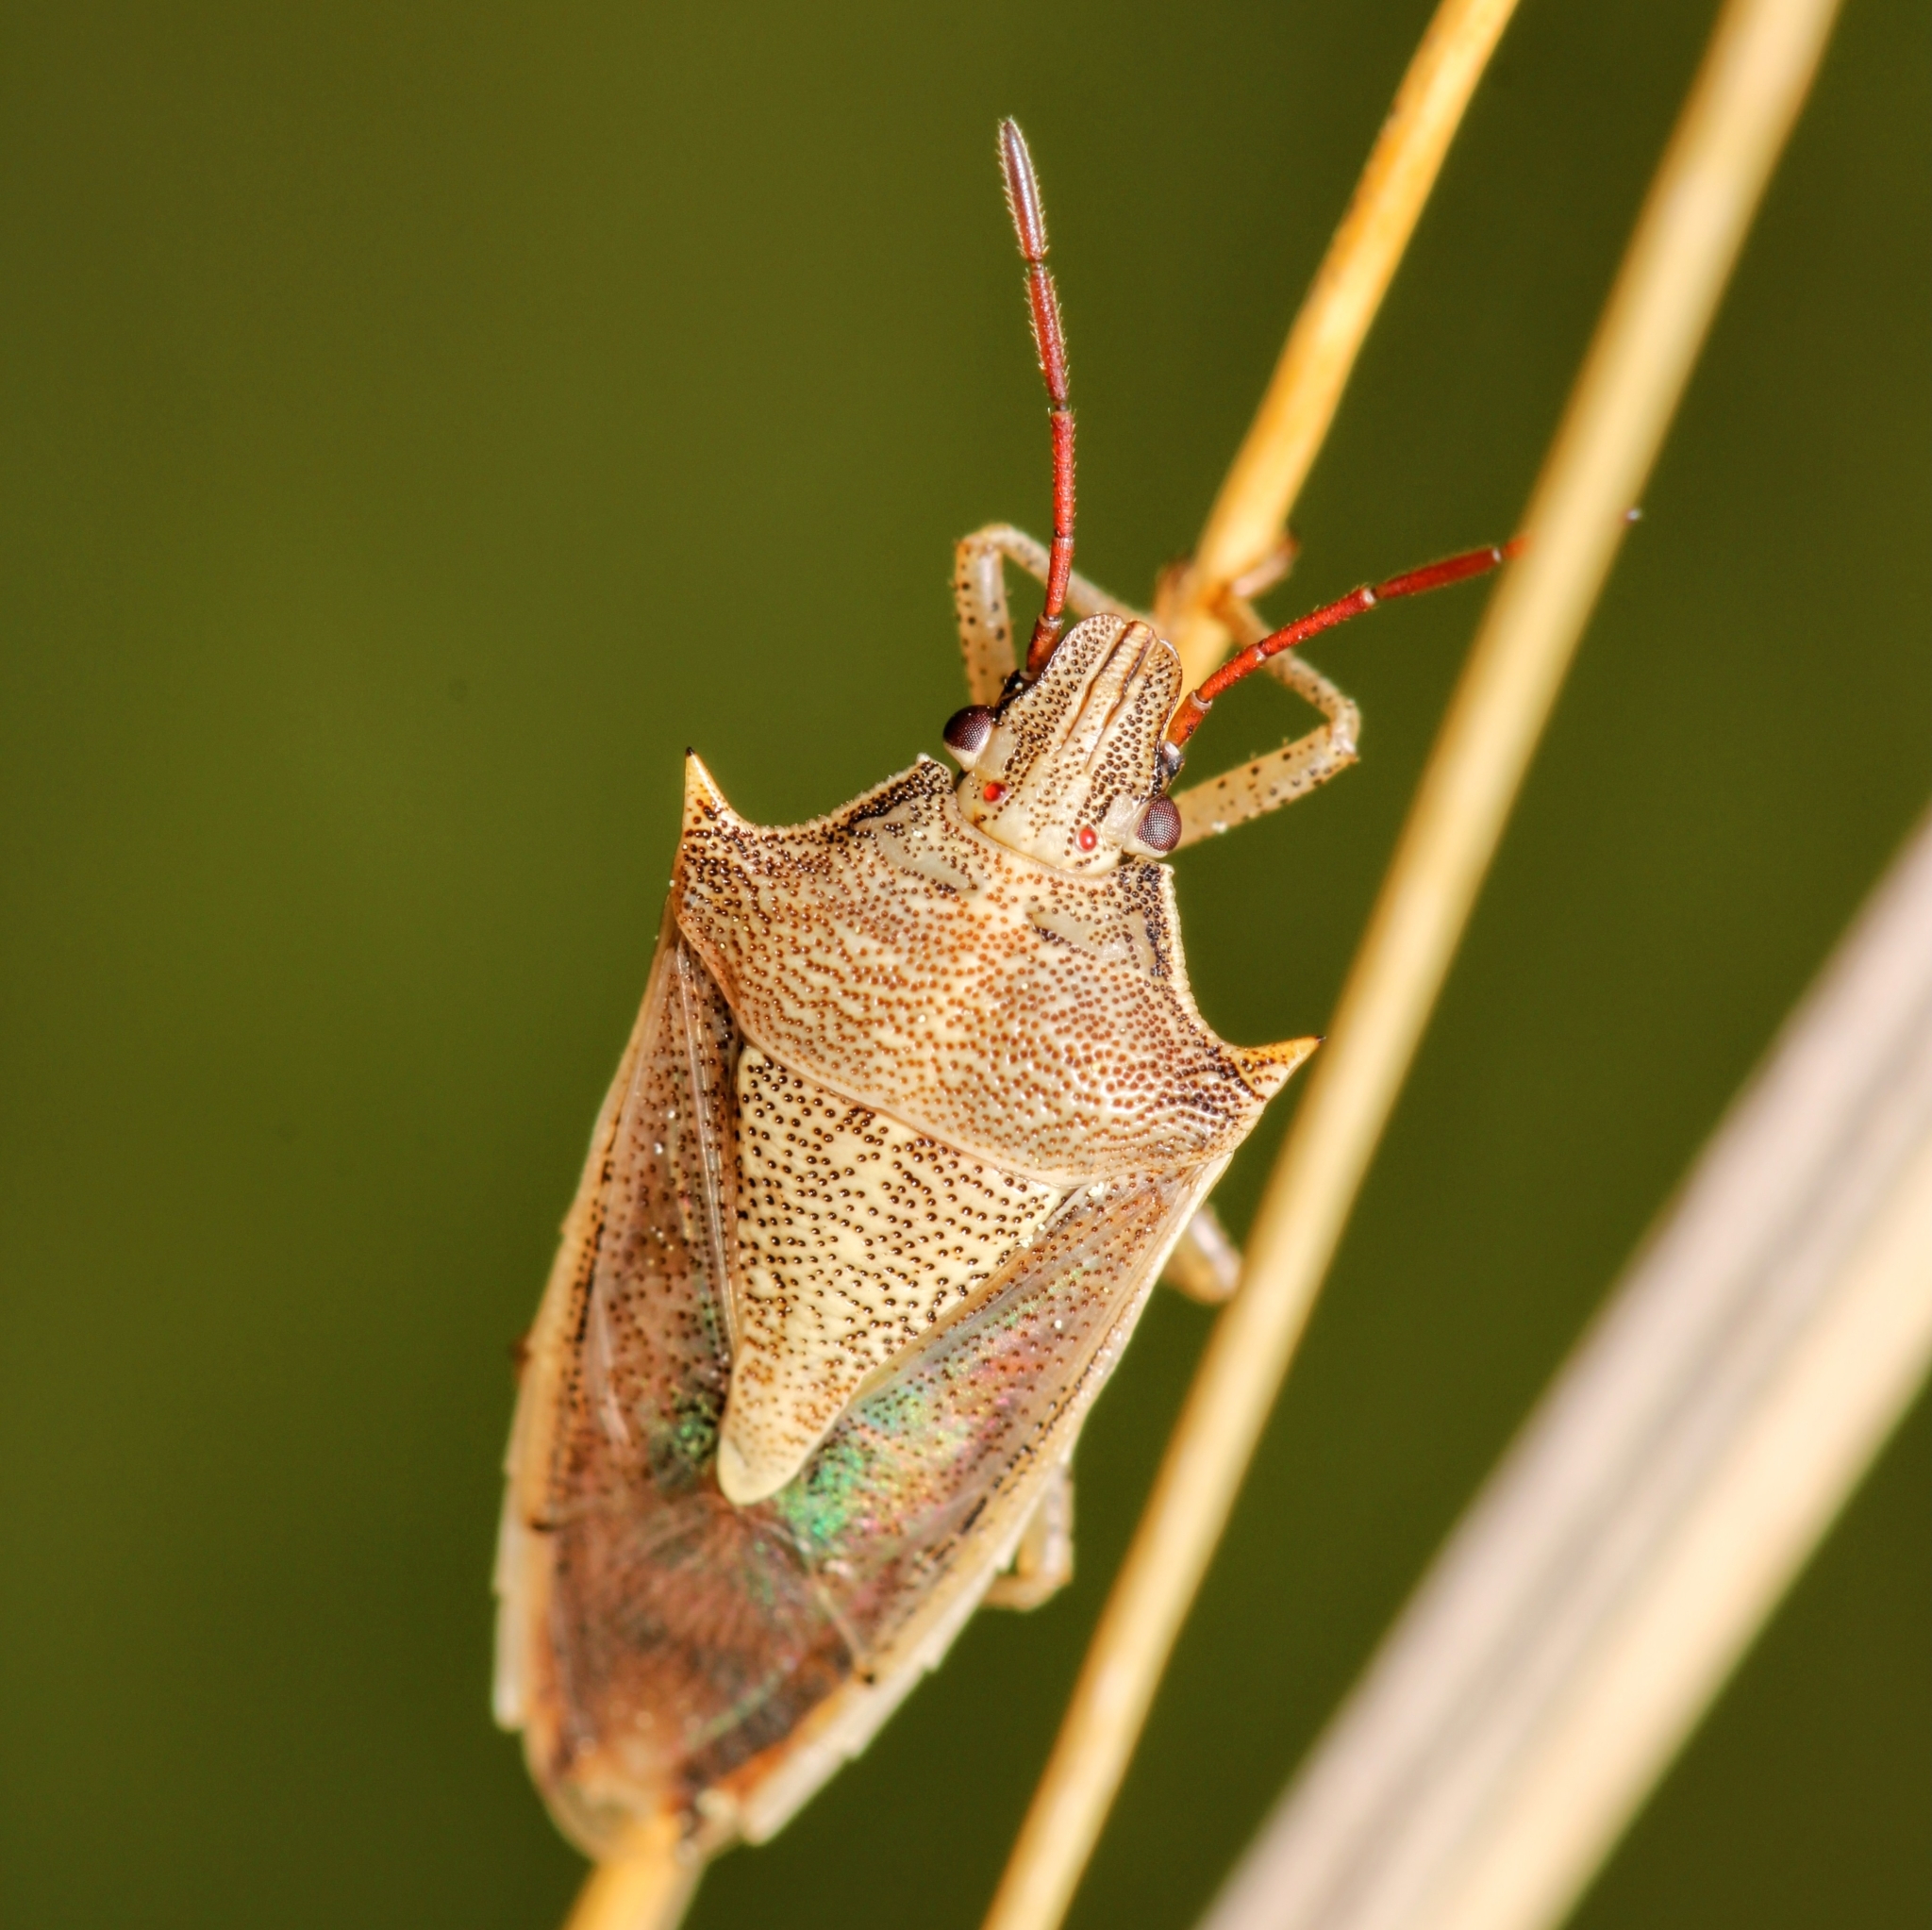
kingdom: Animalia
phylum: Arthropoda
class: Insecta
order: Hemiptera
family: Pentatomidae
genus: Oebalus
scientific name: Oebalus pugnax
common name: Rice stink bug
